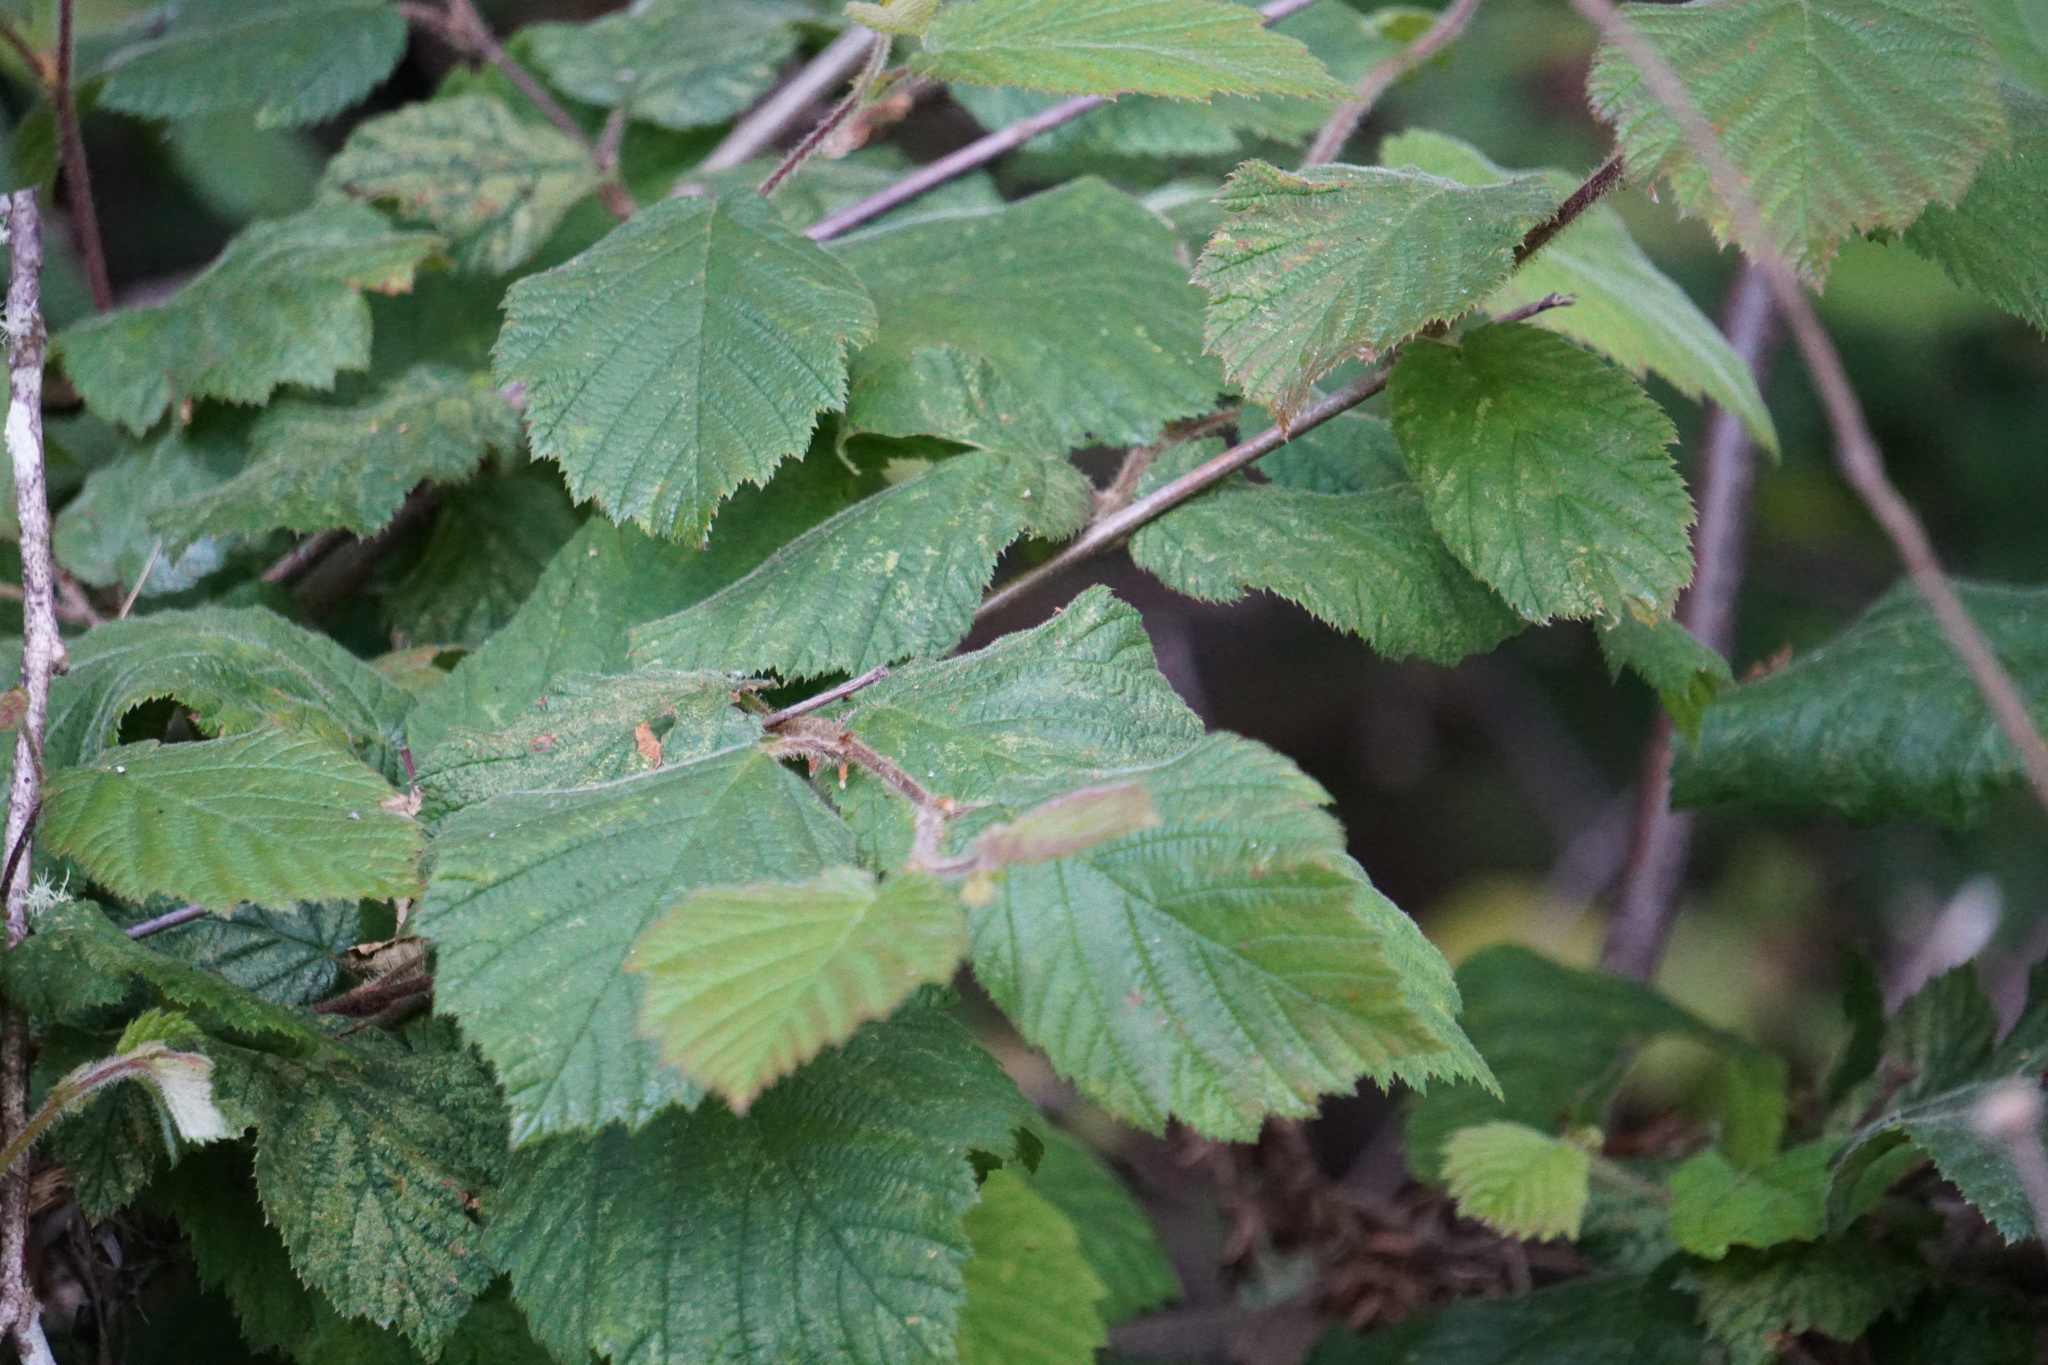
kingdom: Plantae
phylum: Tracheophyta
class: Magnoliopsida
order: Fagales
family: Betulaceae
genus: Corylus
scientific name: Corylus cornuta
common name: Beaked hazel
